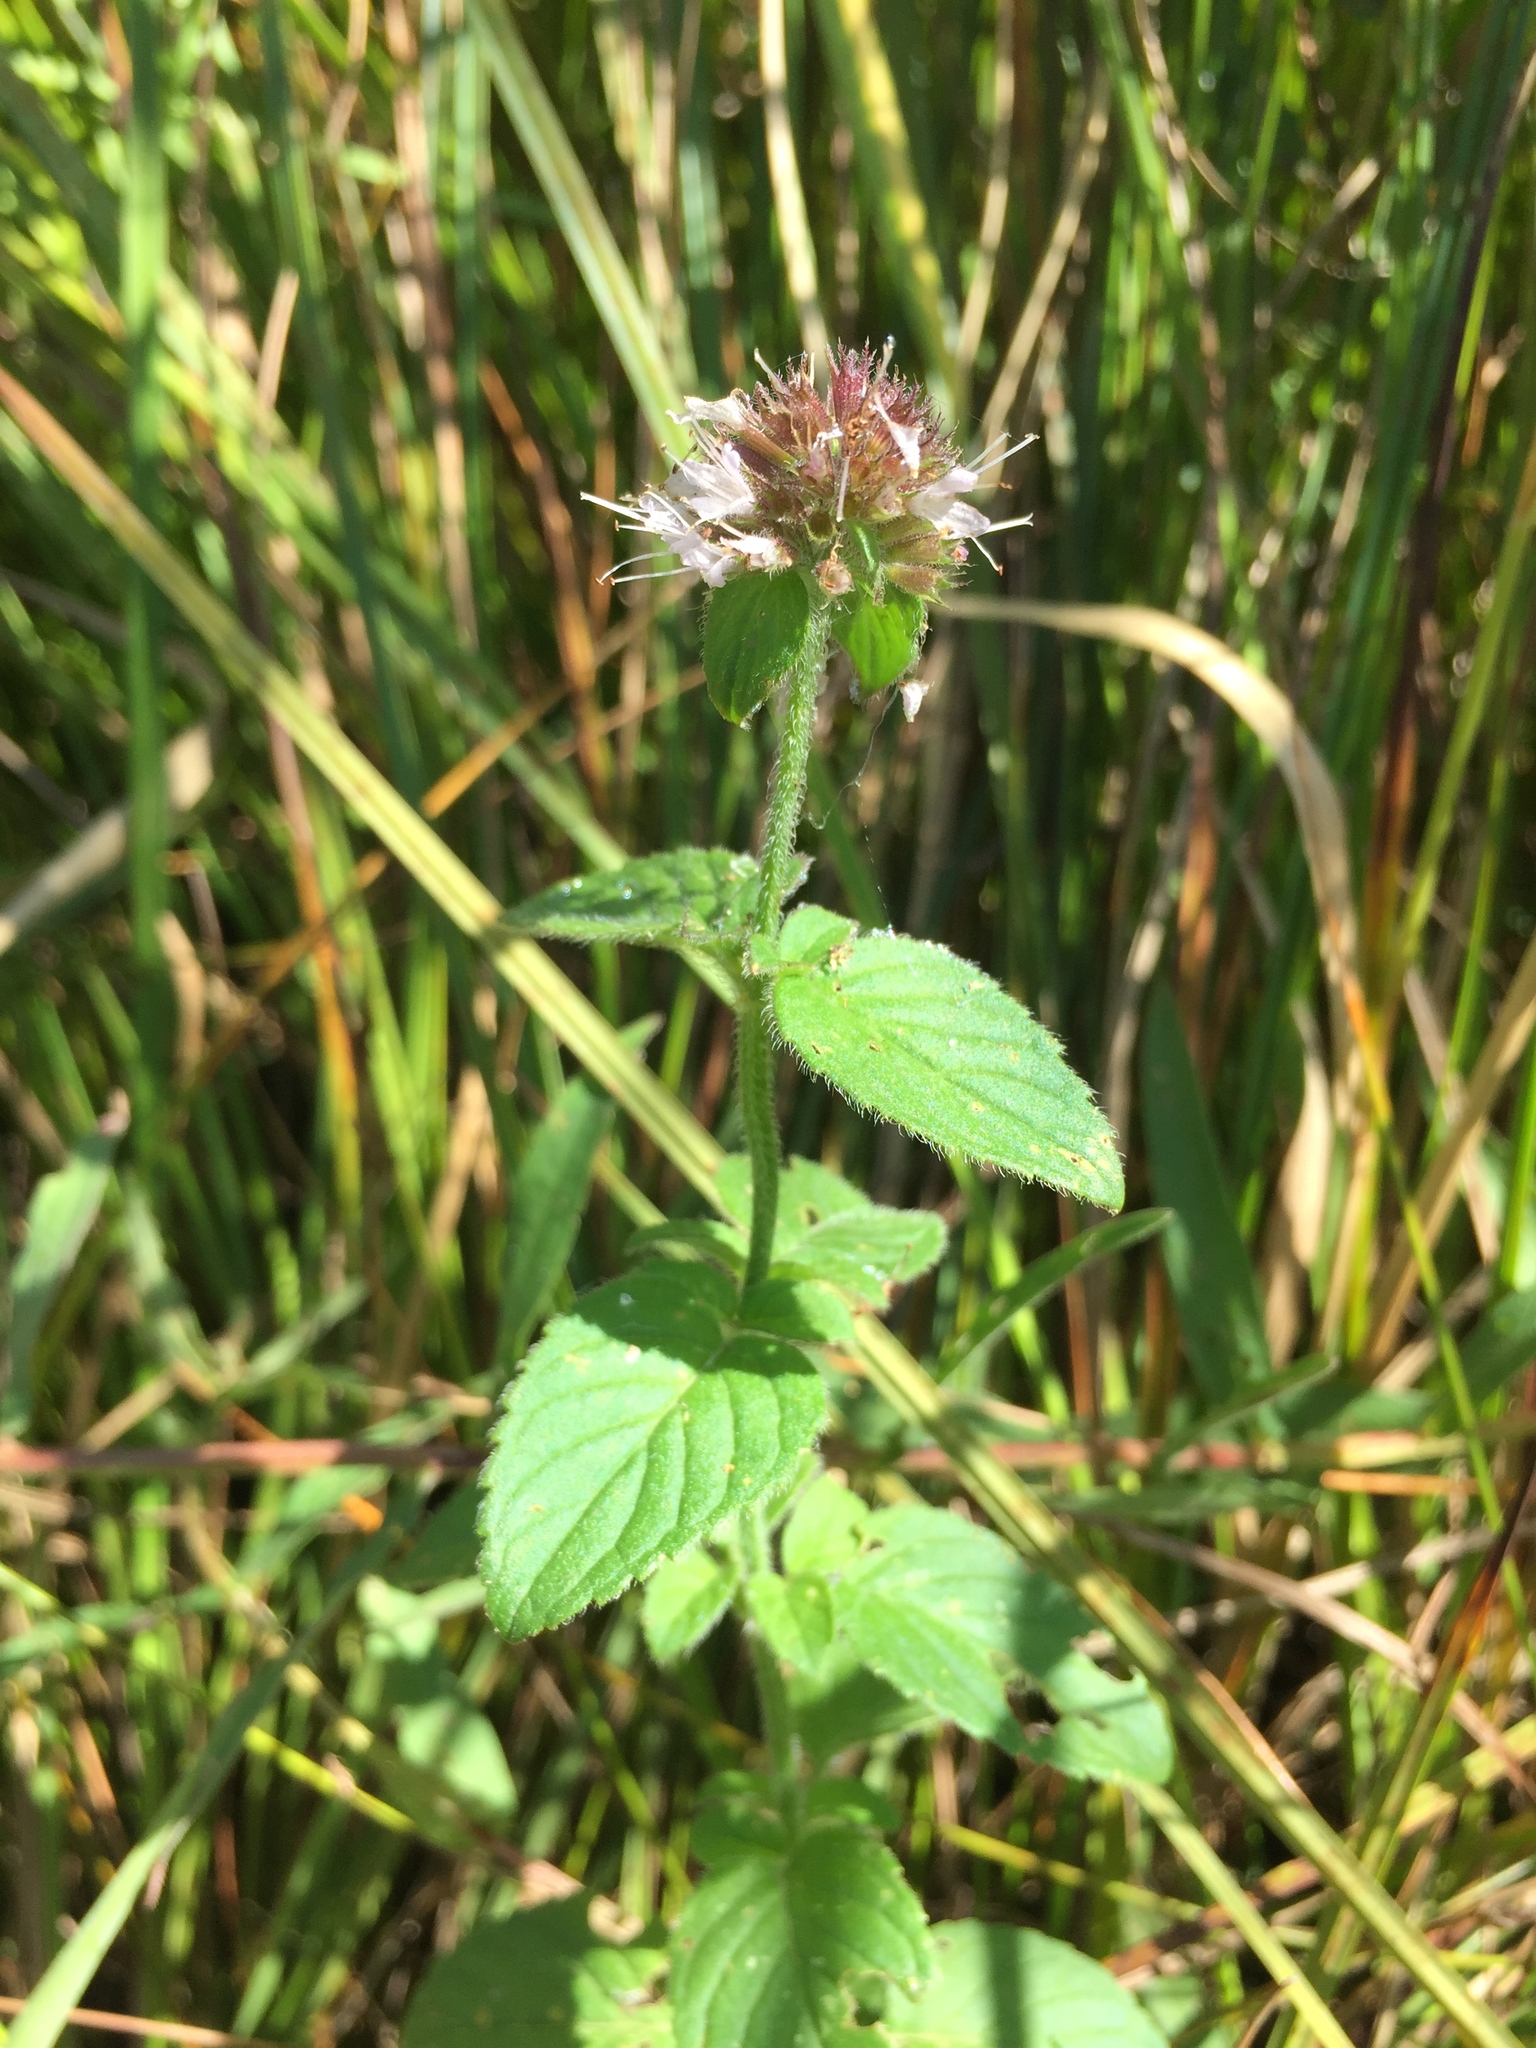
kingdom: Plantae
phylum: Tracheophyta
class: Magnoliopsida
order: Lamiales
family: Lamiaceae
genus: Mentha
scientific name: Mentha aquatica
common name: Water mint
